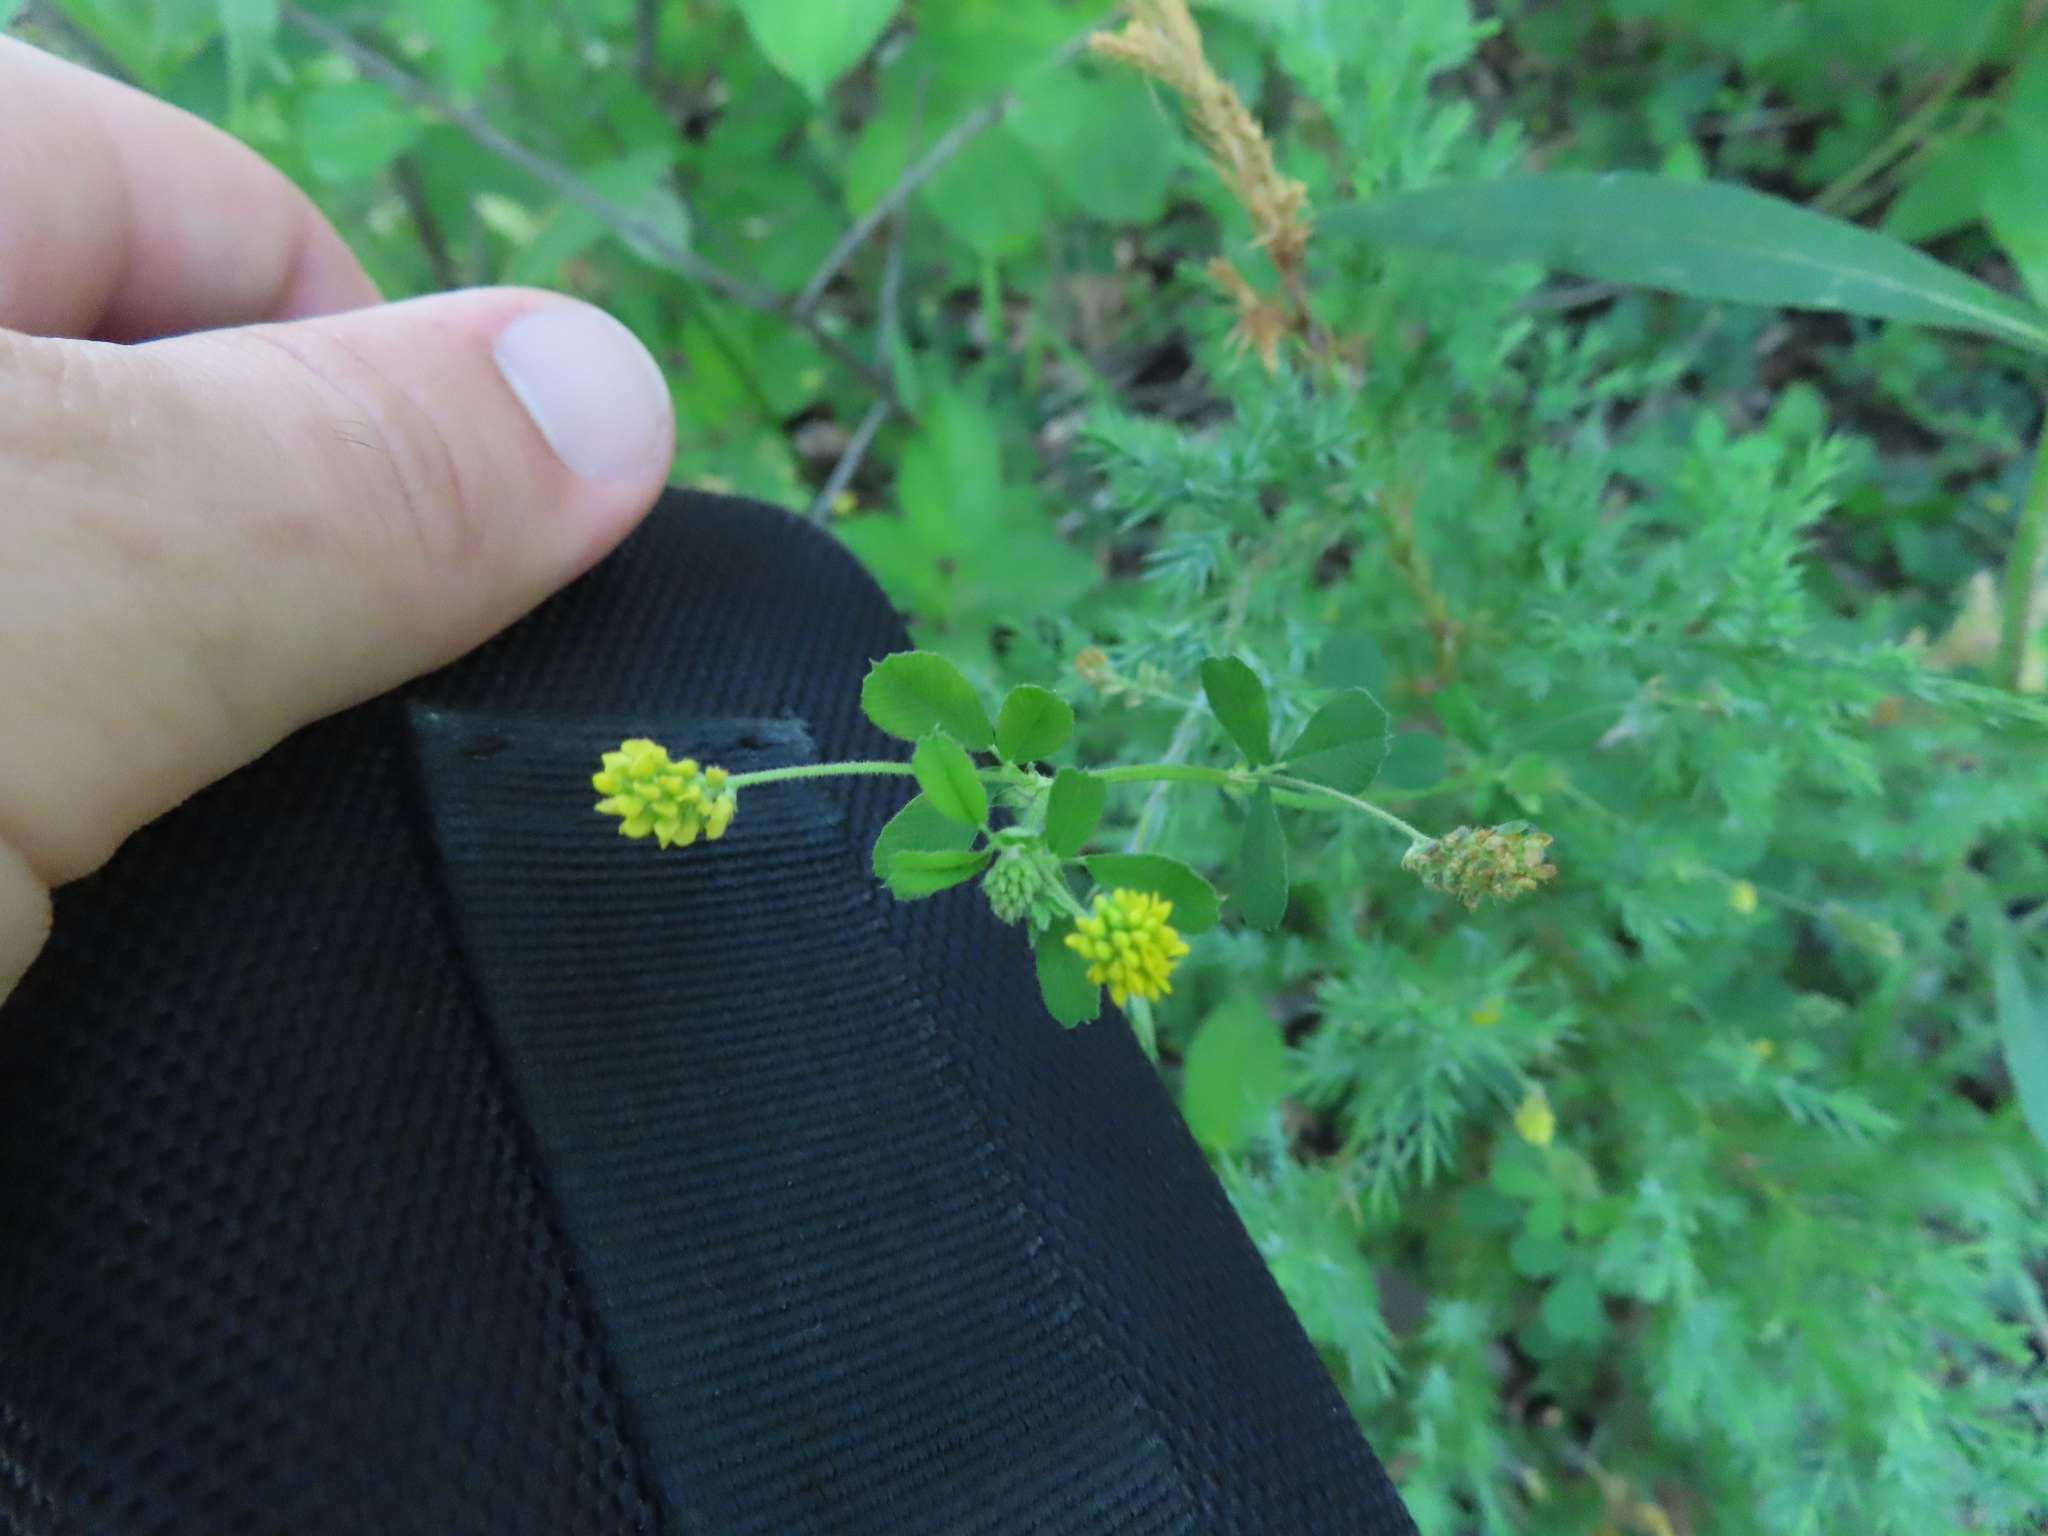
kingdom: Plantae
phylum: Tracheophyta
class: Magnoliopsida
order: Fabales
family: Fabaceae
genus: Medicago
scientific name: Medicago lupulina
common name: Black medick
